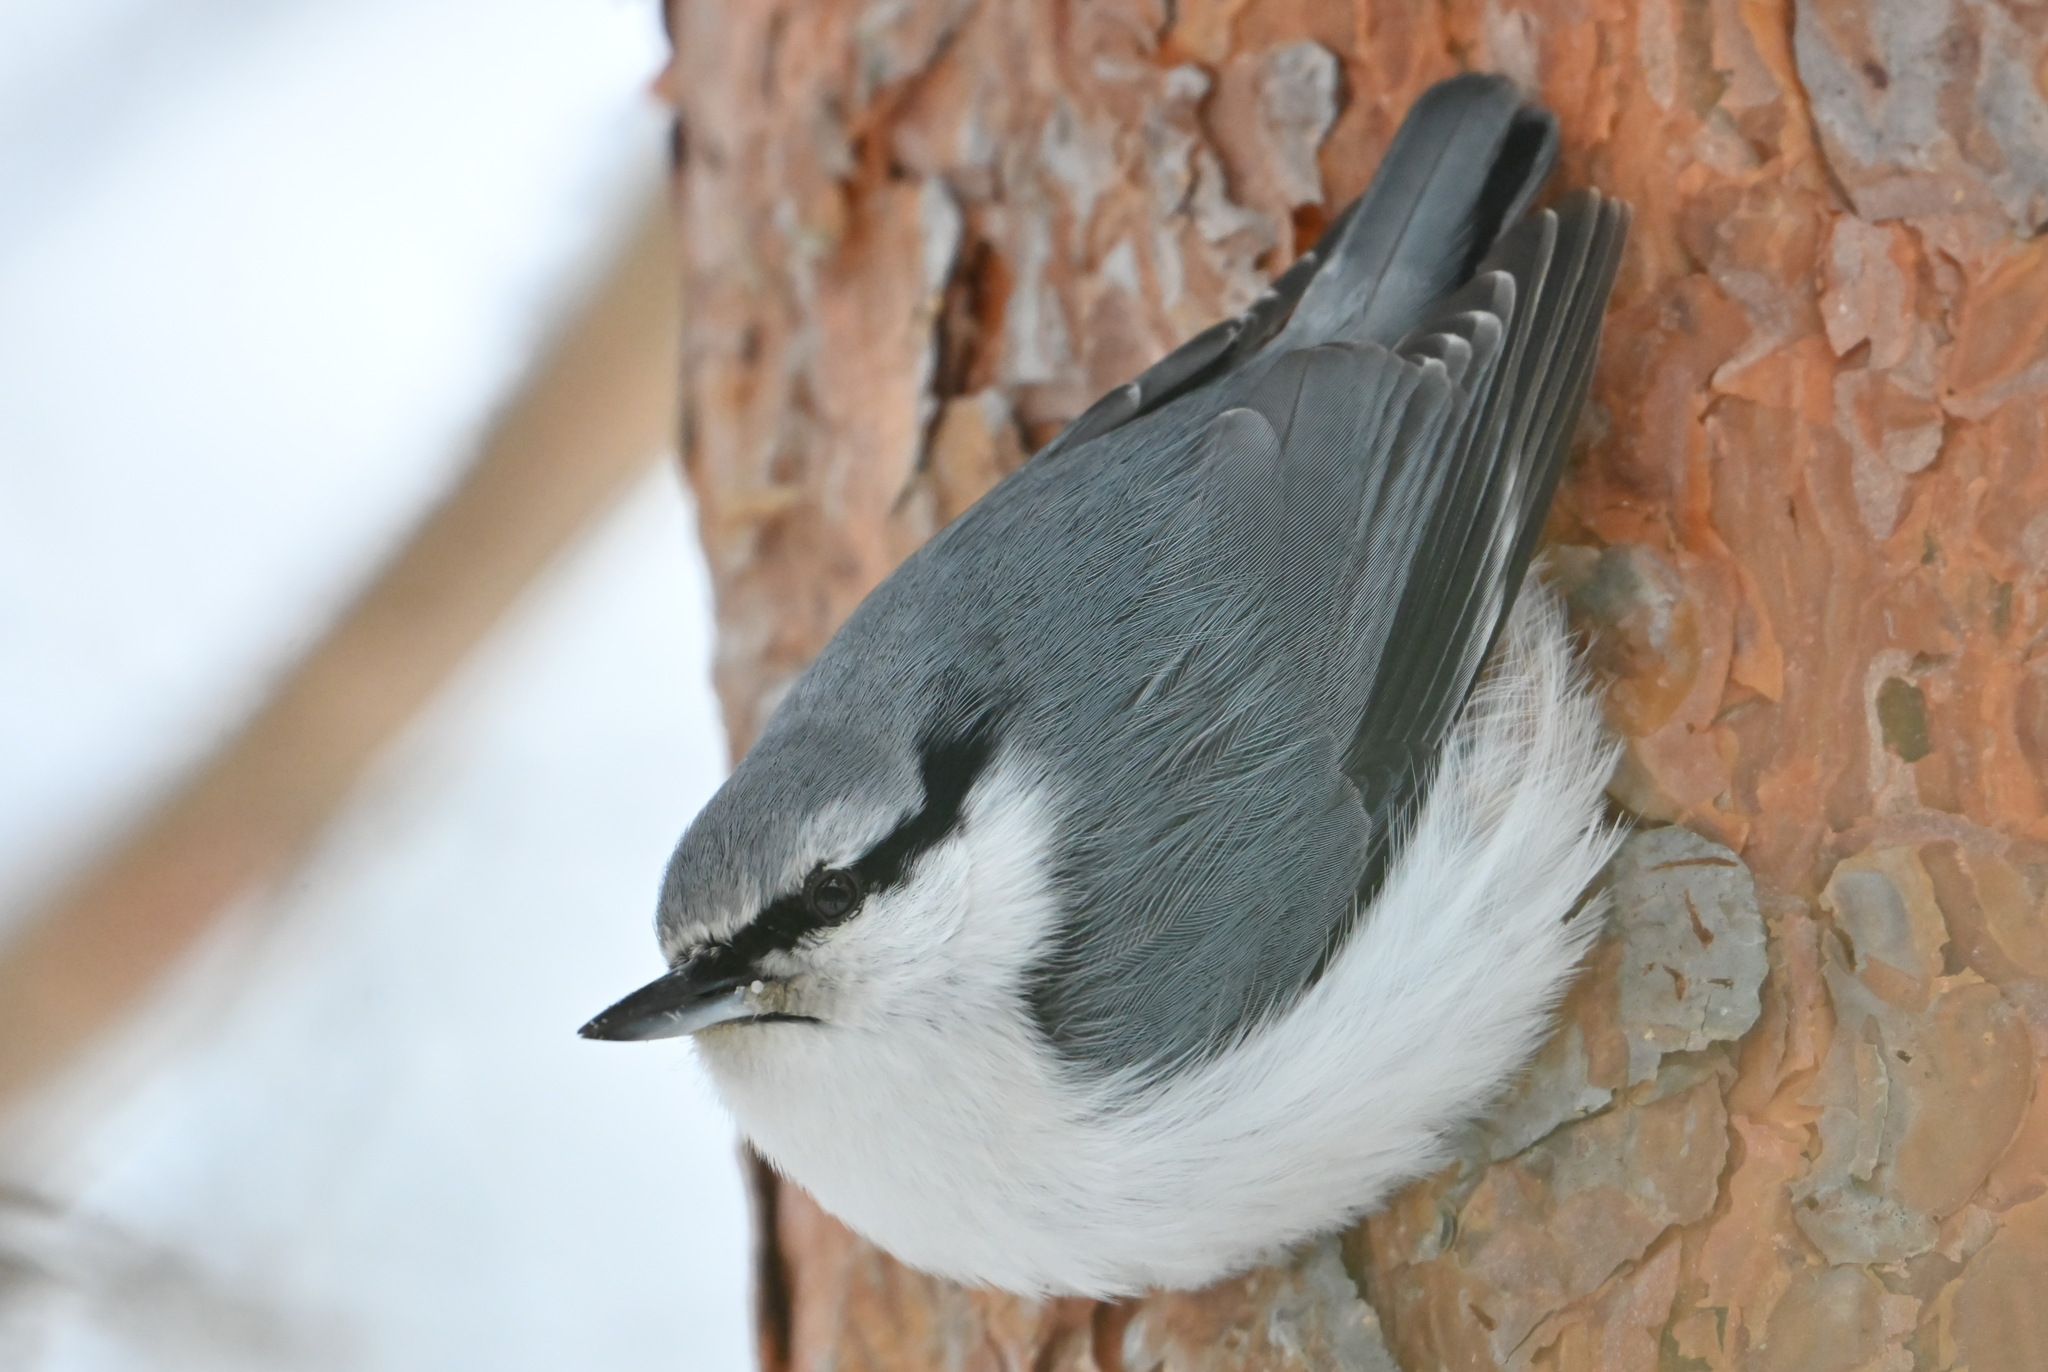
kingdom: Animalia
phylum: Chordata
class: Aves
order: Passeriformes
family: Sittidae
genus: Sitta
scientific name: Sitta europaea
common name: Eurasian nuthatch
